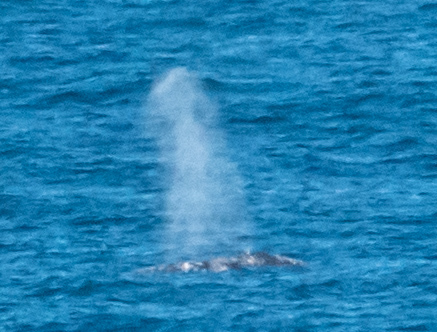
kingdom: Animalia
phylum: Chordata
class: Mammalia
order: Cetacea
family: Eschrichtiidae
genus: Eschrichtius
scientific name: Eschrichtius robustus
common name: Gray whale
